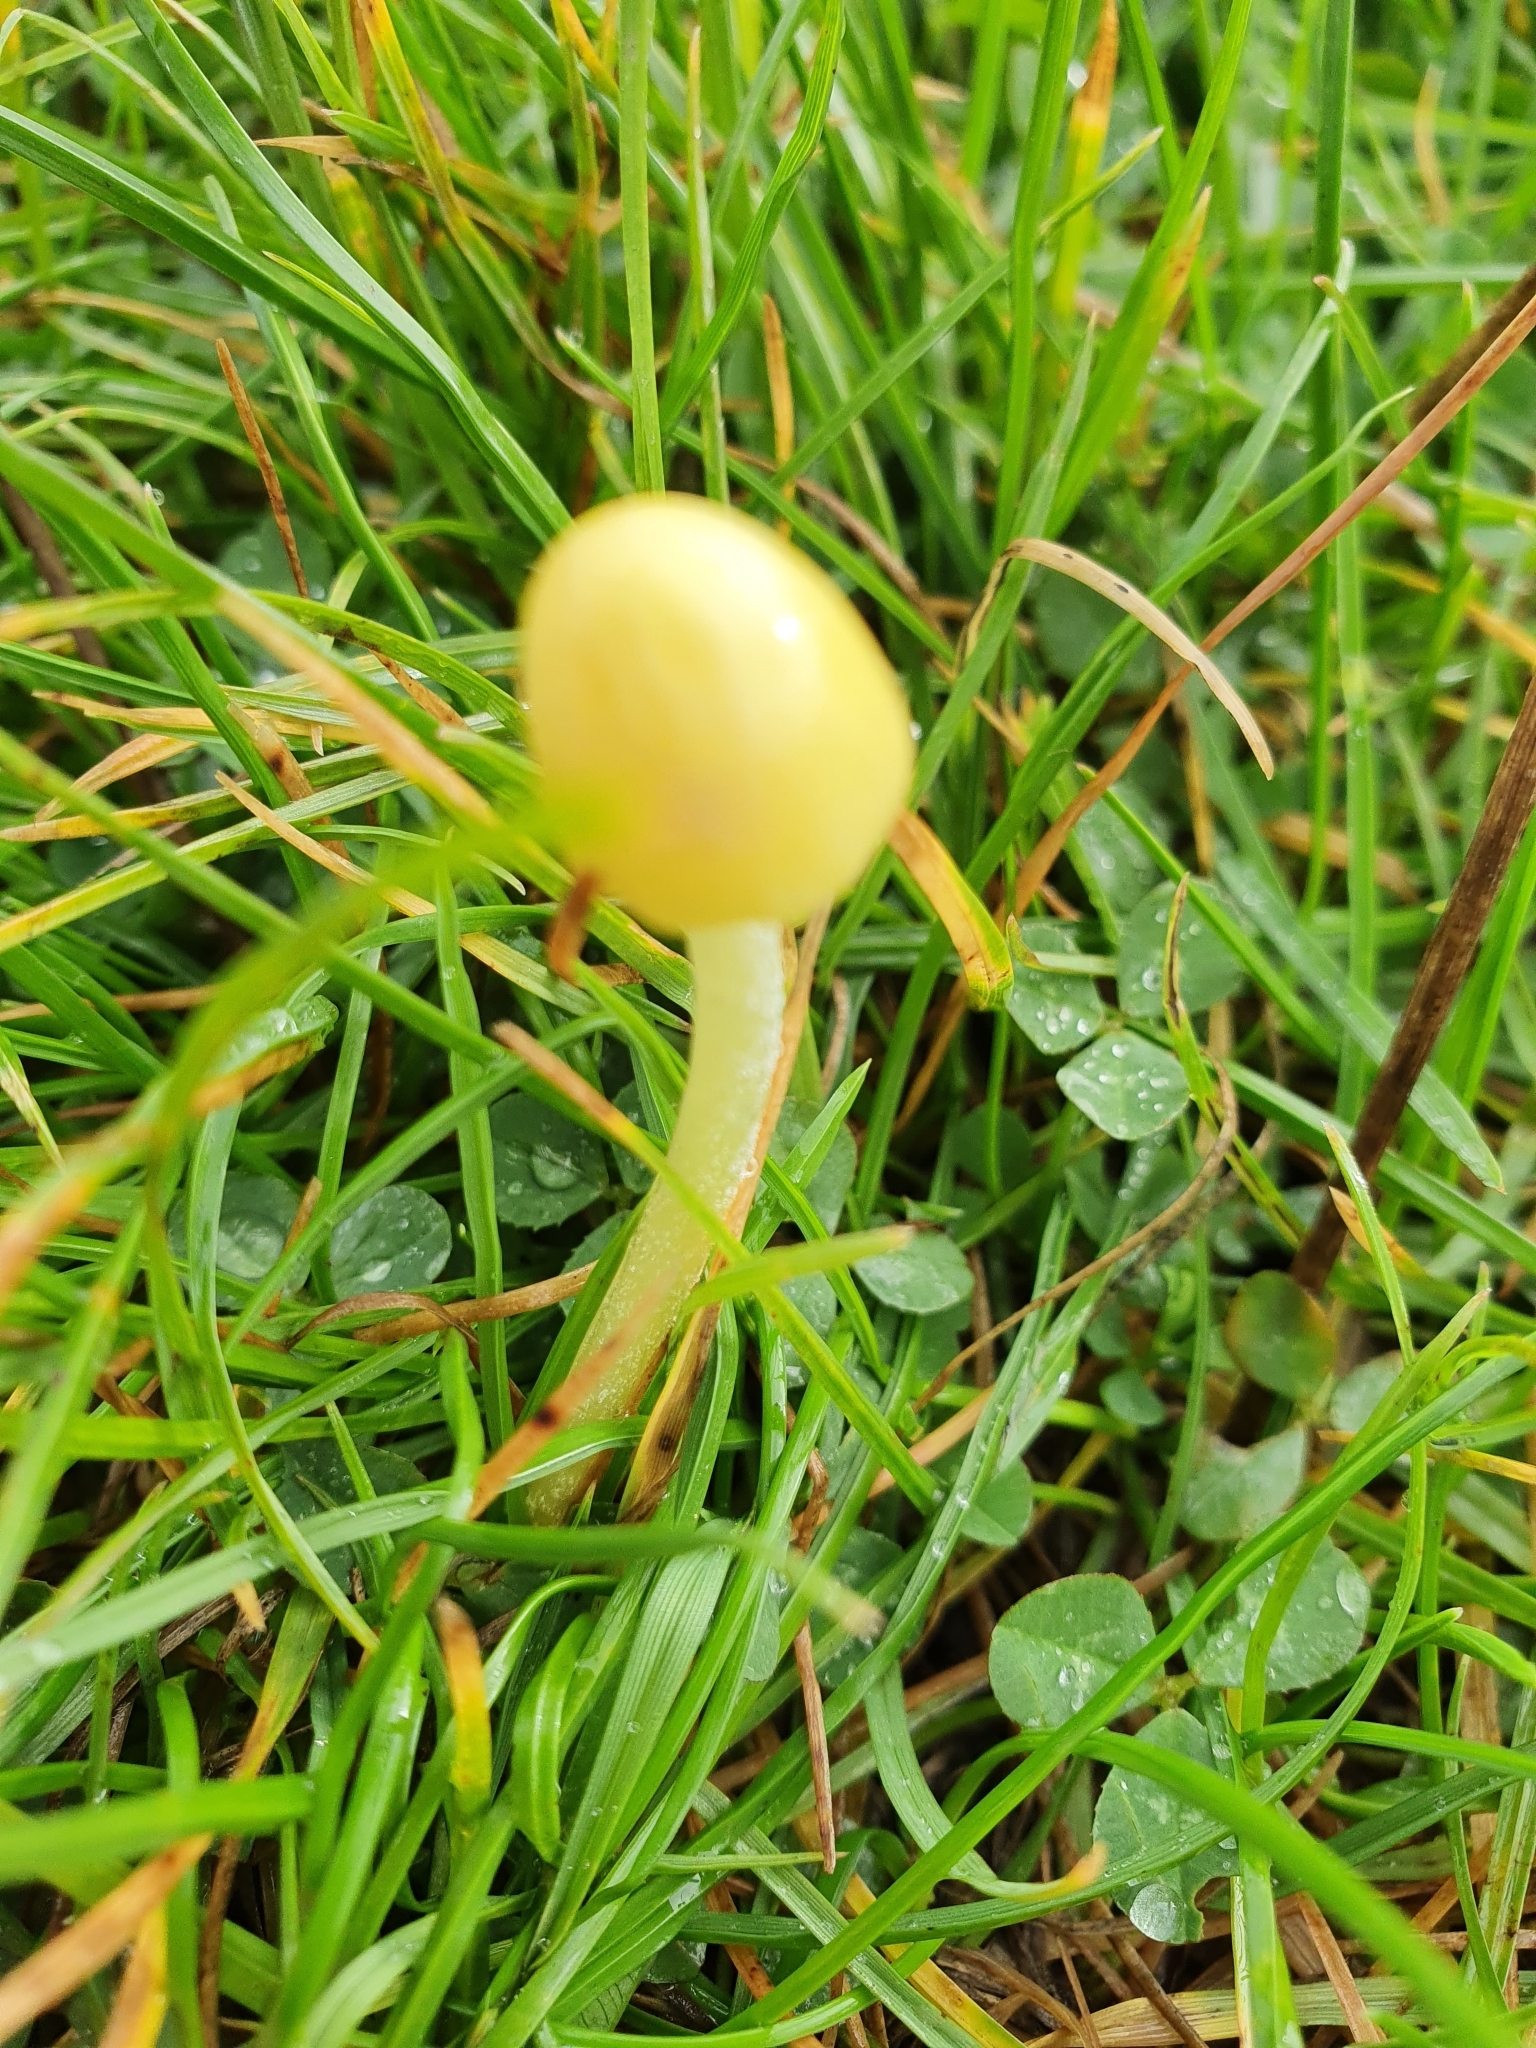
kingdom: Fungi
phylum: Basidiomycota
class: Agaricomycetes
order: Agaricales
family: Bolbitiaceae
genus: Bolbitius
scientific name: Bolbitius titubans
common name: Yellow fieldcap
